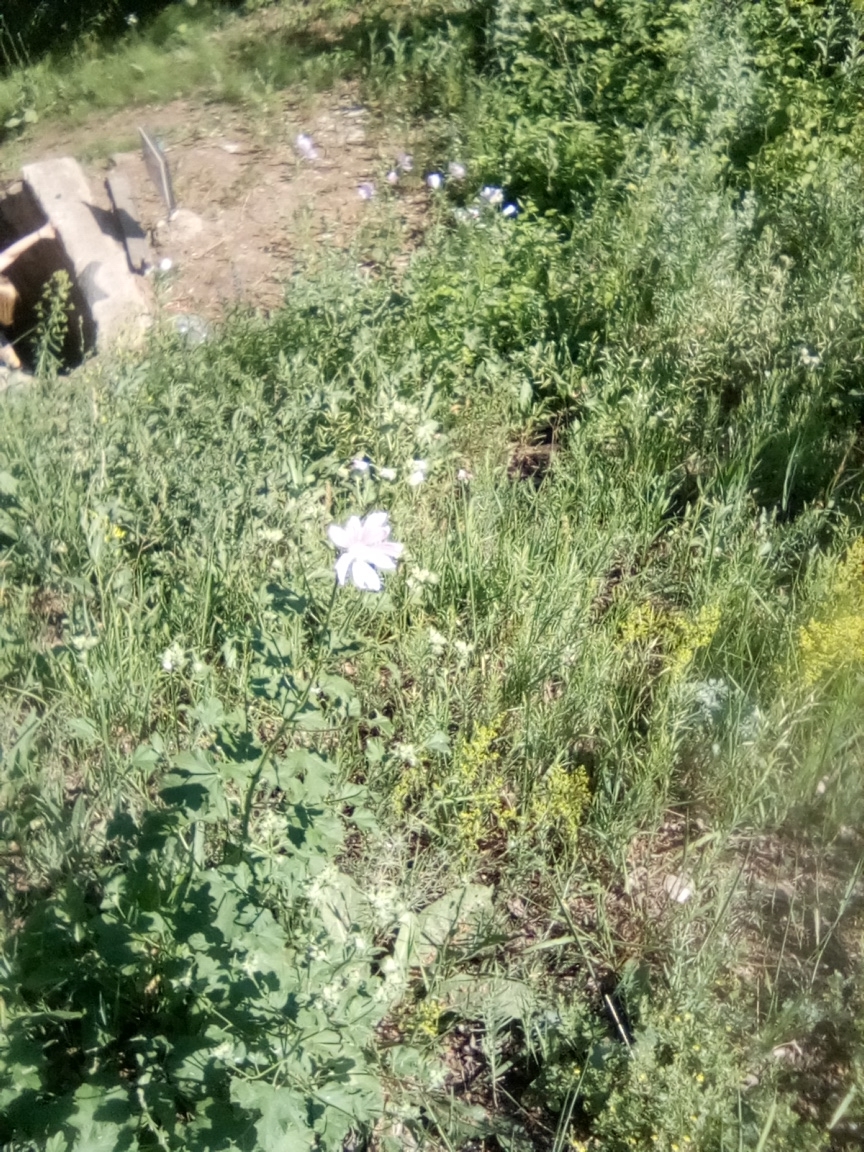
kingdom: Plantae
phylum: Tracheophyta
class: Magnoliopsida
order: Malvales
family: Malvaceae
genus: Malva
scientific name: Malva thuringiaca
